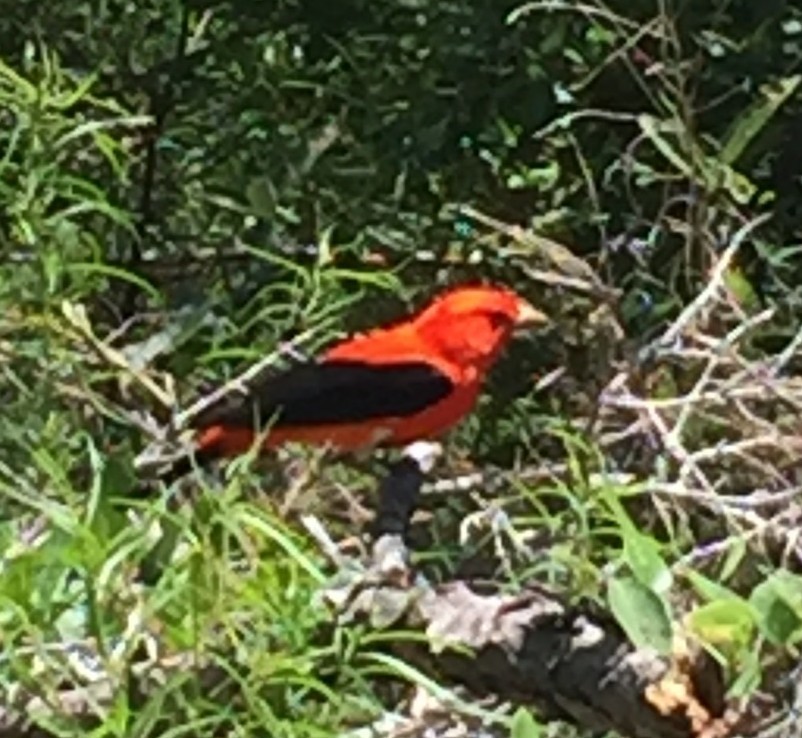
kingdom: Animalia
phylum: Chordata
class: Aves
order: Passeriformes
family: Cardinalidae
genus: Piranga
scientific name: Piranga olivacea
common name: Scarlet tanager
